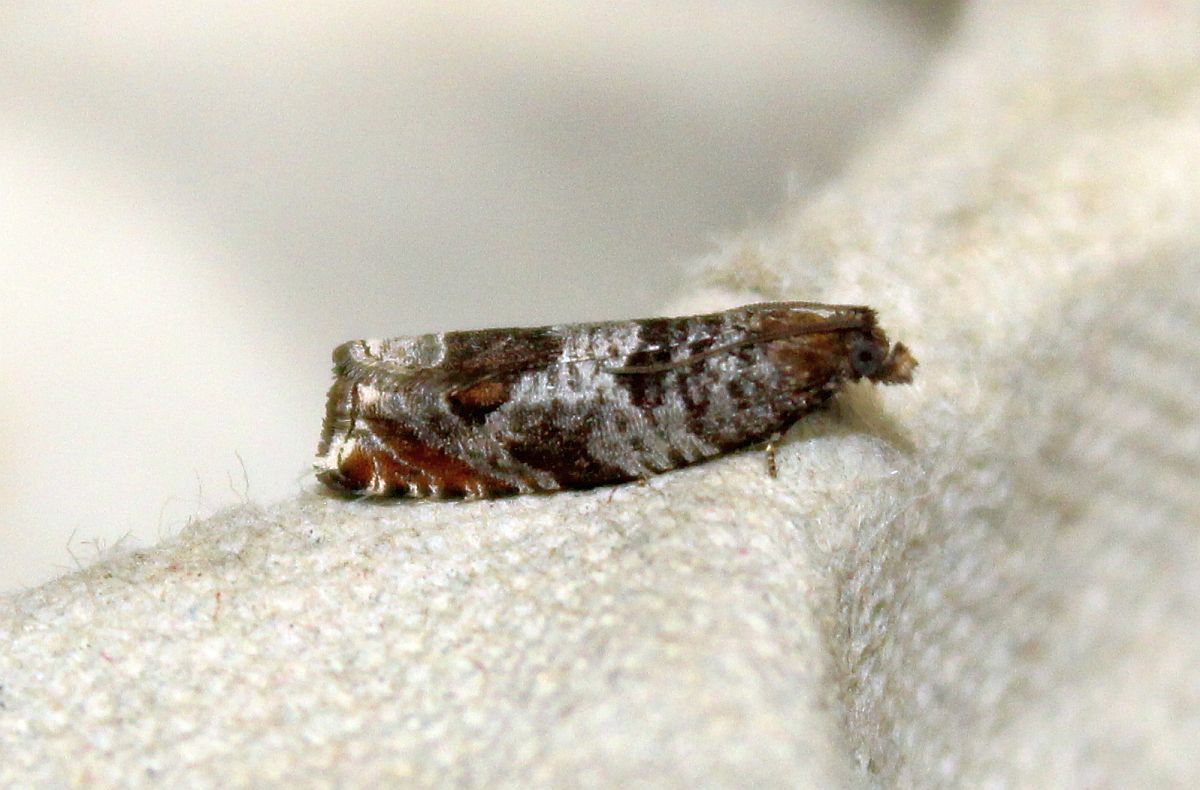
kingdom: Animalia
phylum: Arthropoda
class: Insecta
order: Lepidoptera
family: Tortricidae
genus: Ancylis
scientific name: Ancylis achatana
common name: Triangle-marked roller
